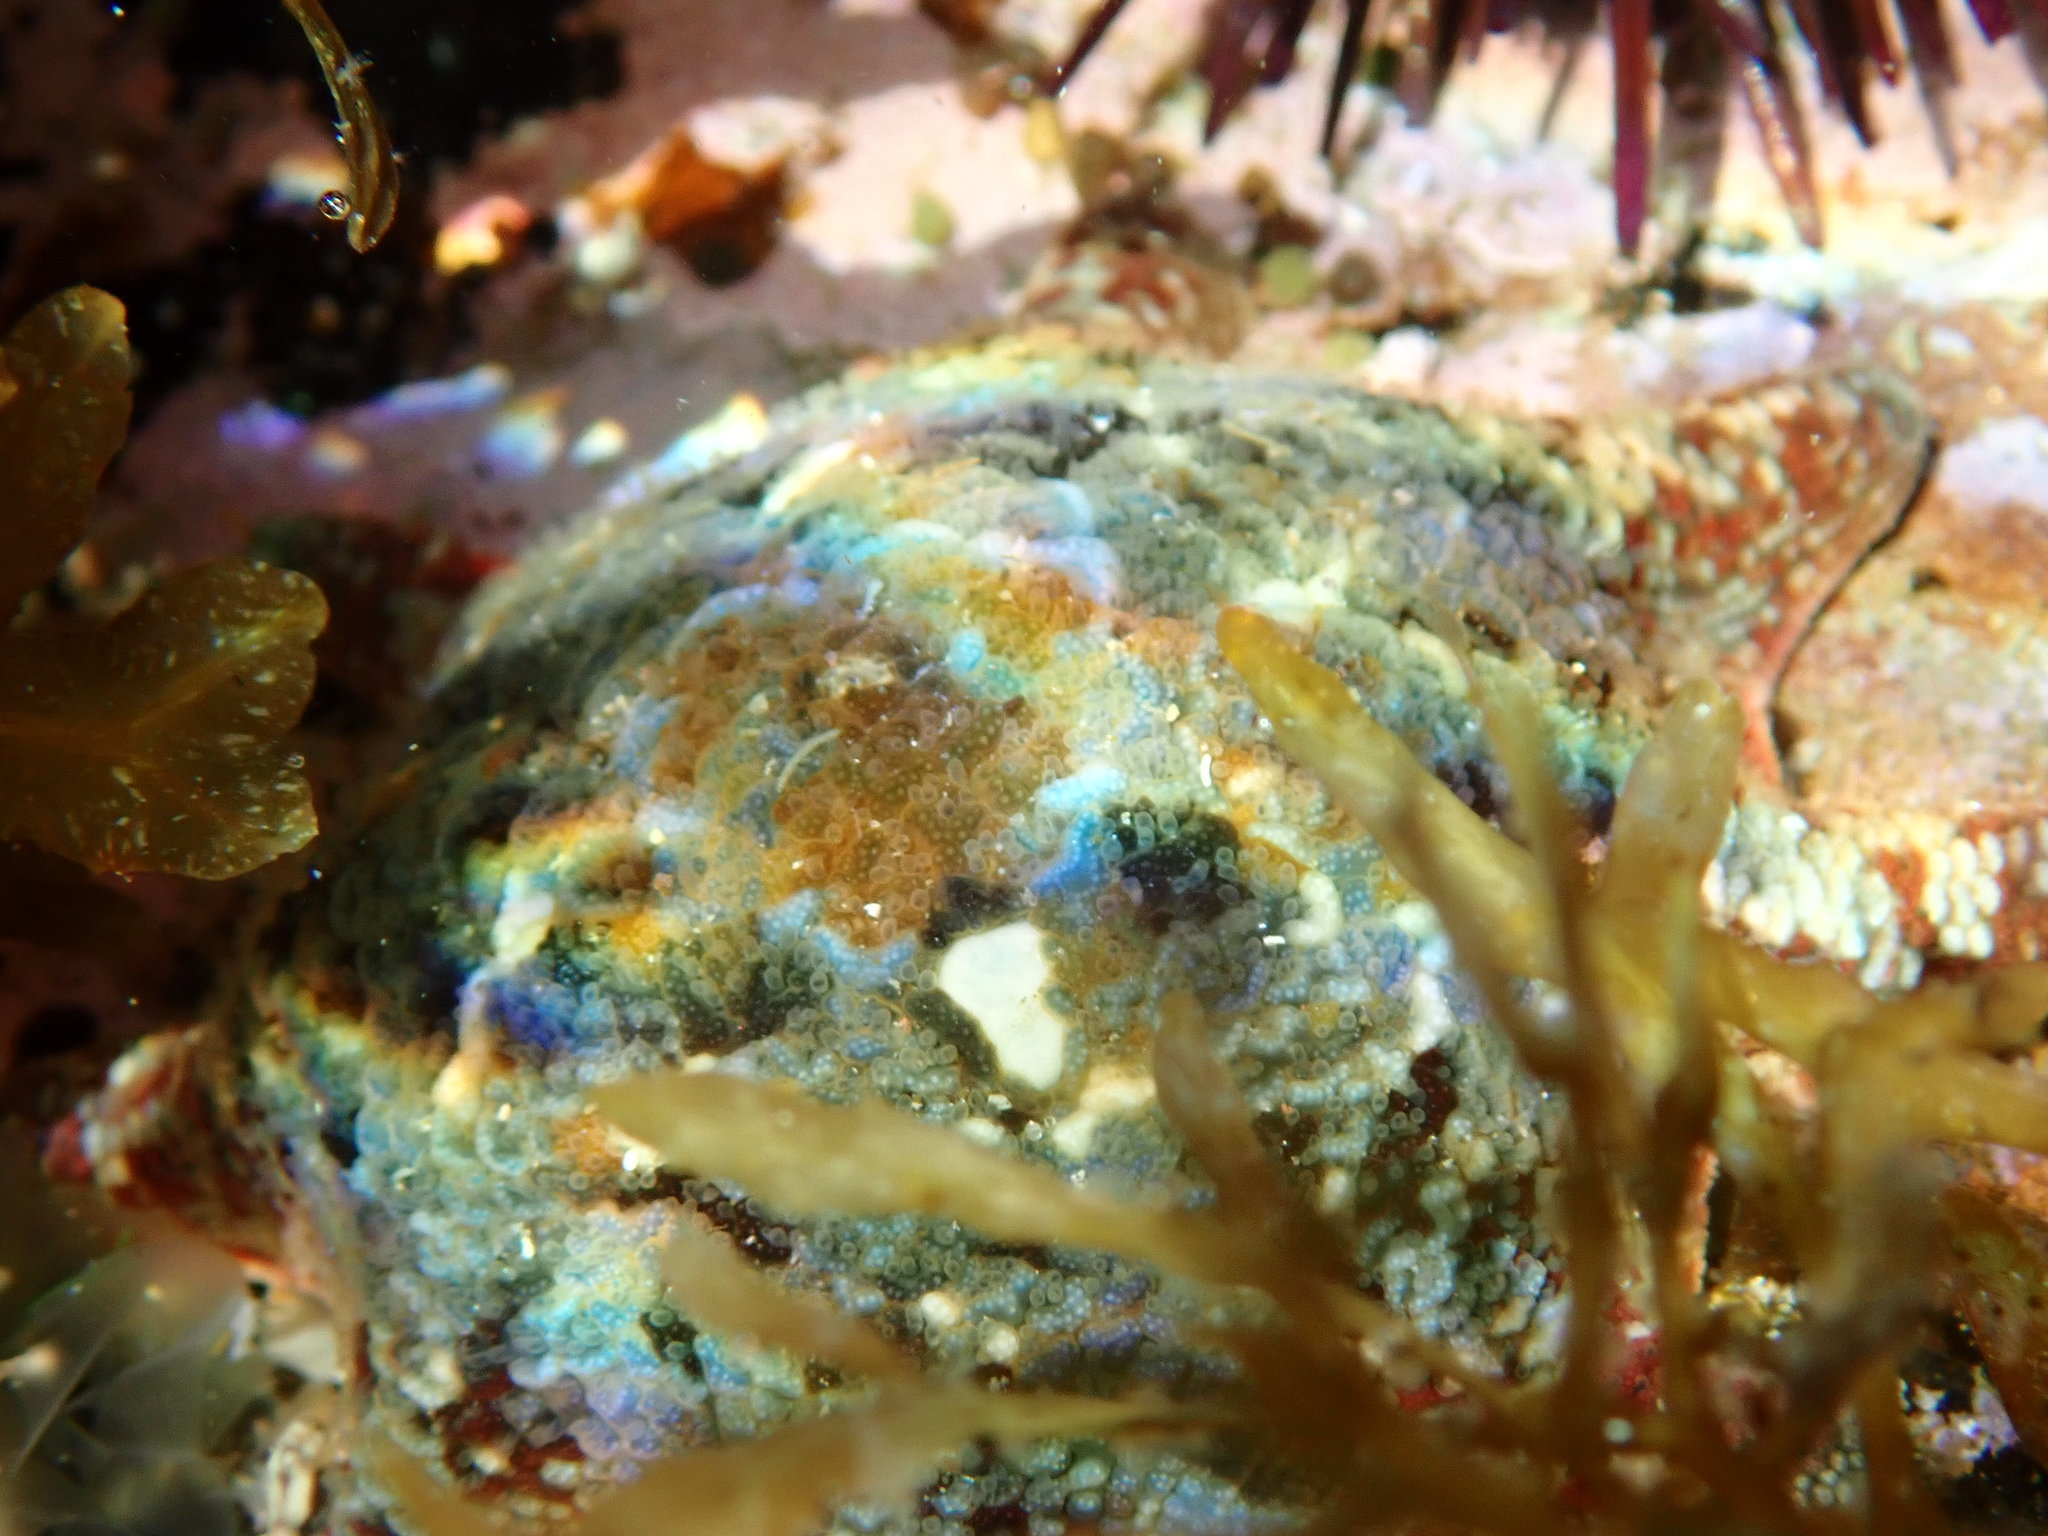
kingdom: Animalia
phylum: Echinodermata
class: Asteroidea
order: Valvatida
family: Asterinidae
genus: Meridiastra
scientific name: Meridiastra calcar
